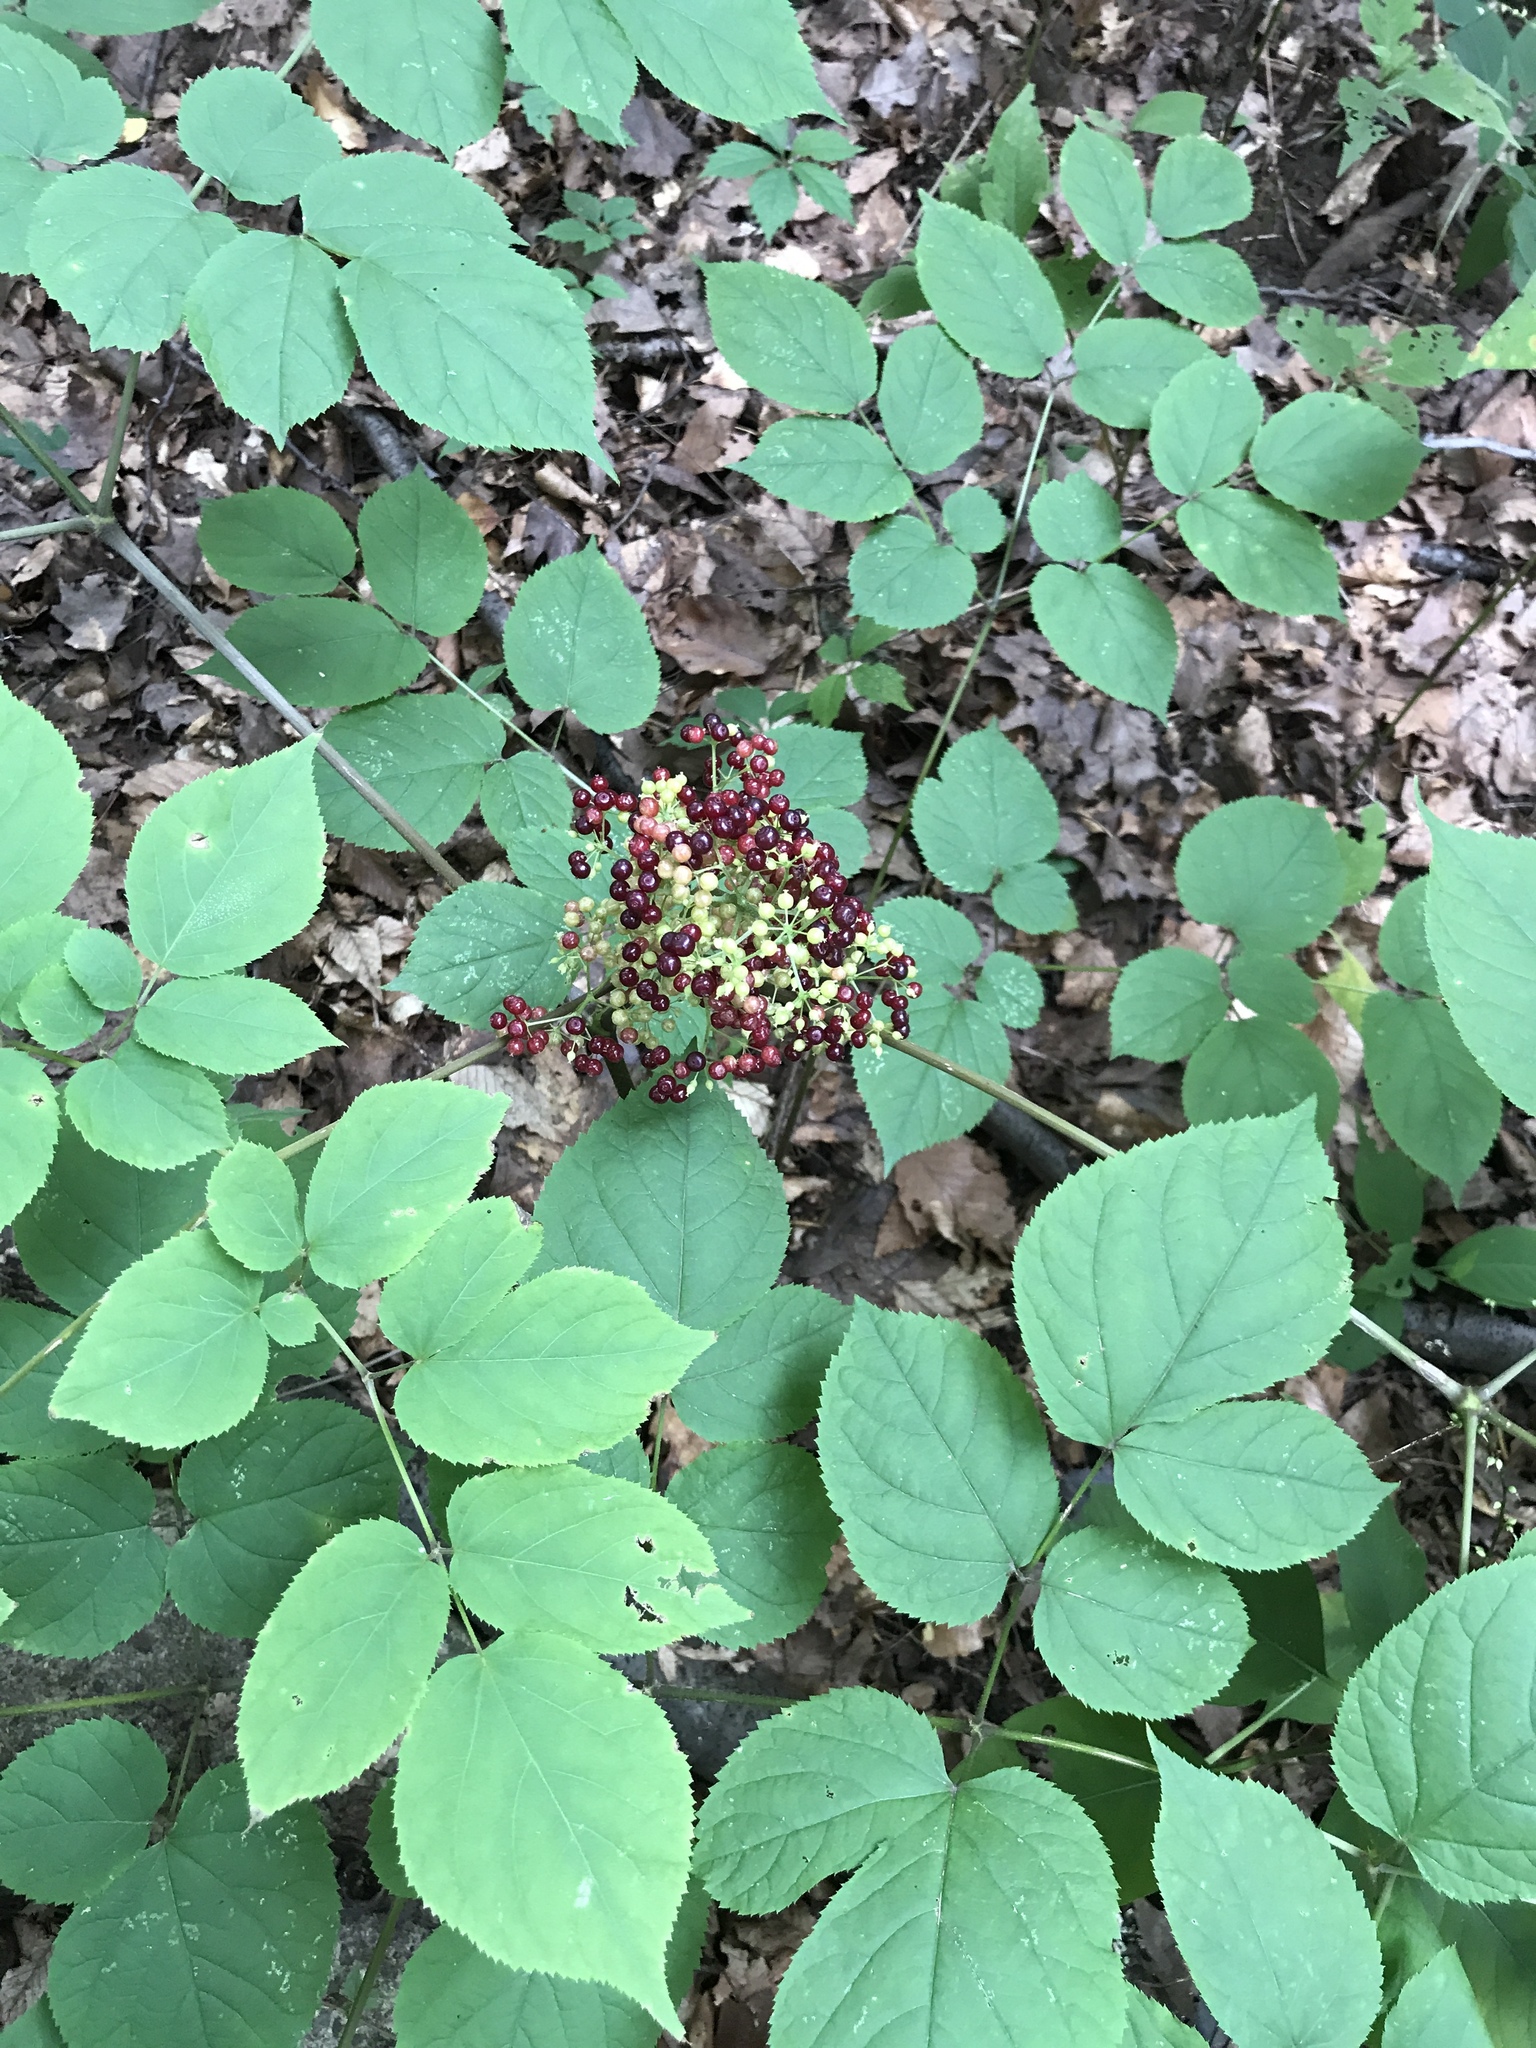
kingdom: Plantae
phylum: Tracheophyta
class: Magnoliopsida
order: Apiales
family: Araliaceae
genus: Aralia
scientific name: Aralia racemosa
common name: American-spikenard
